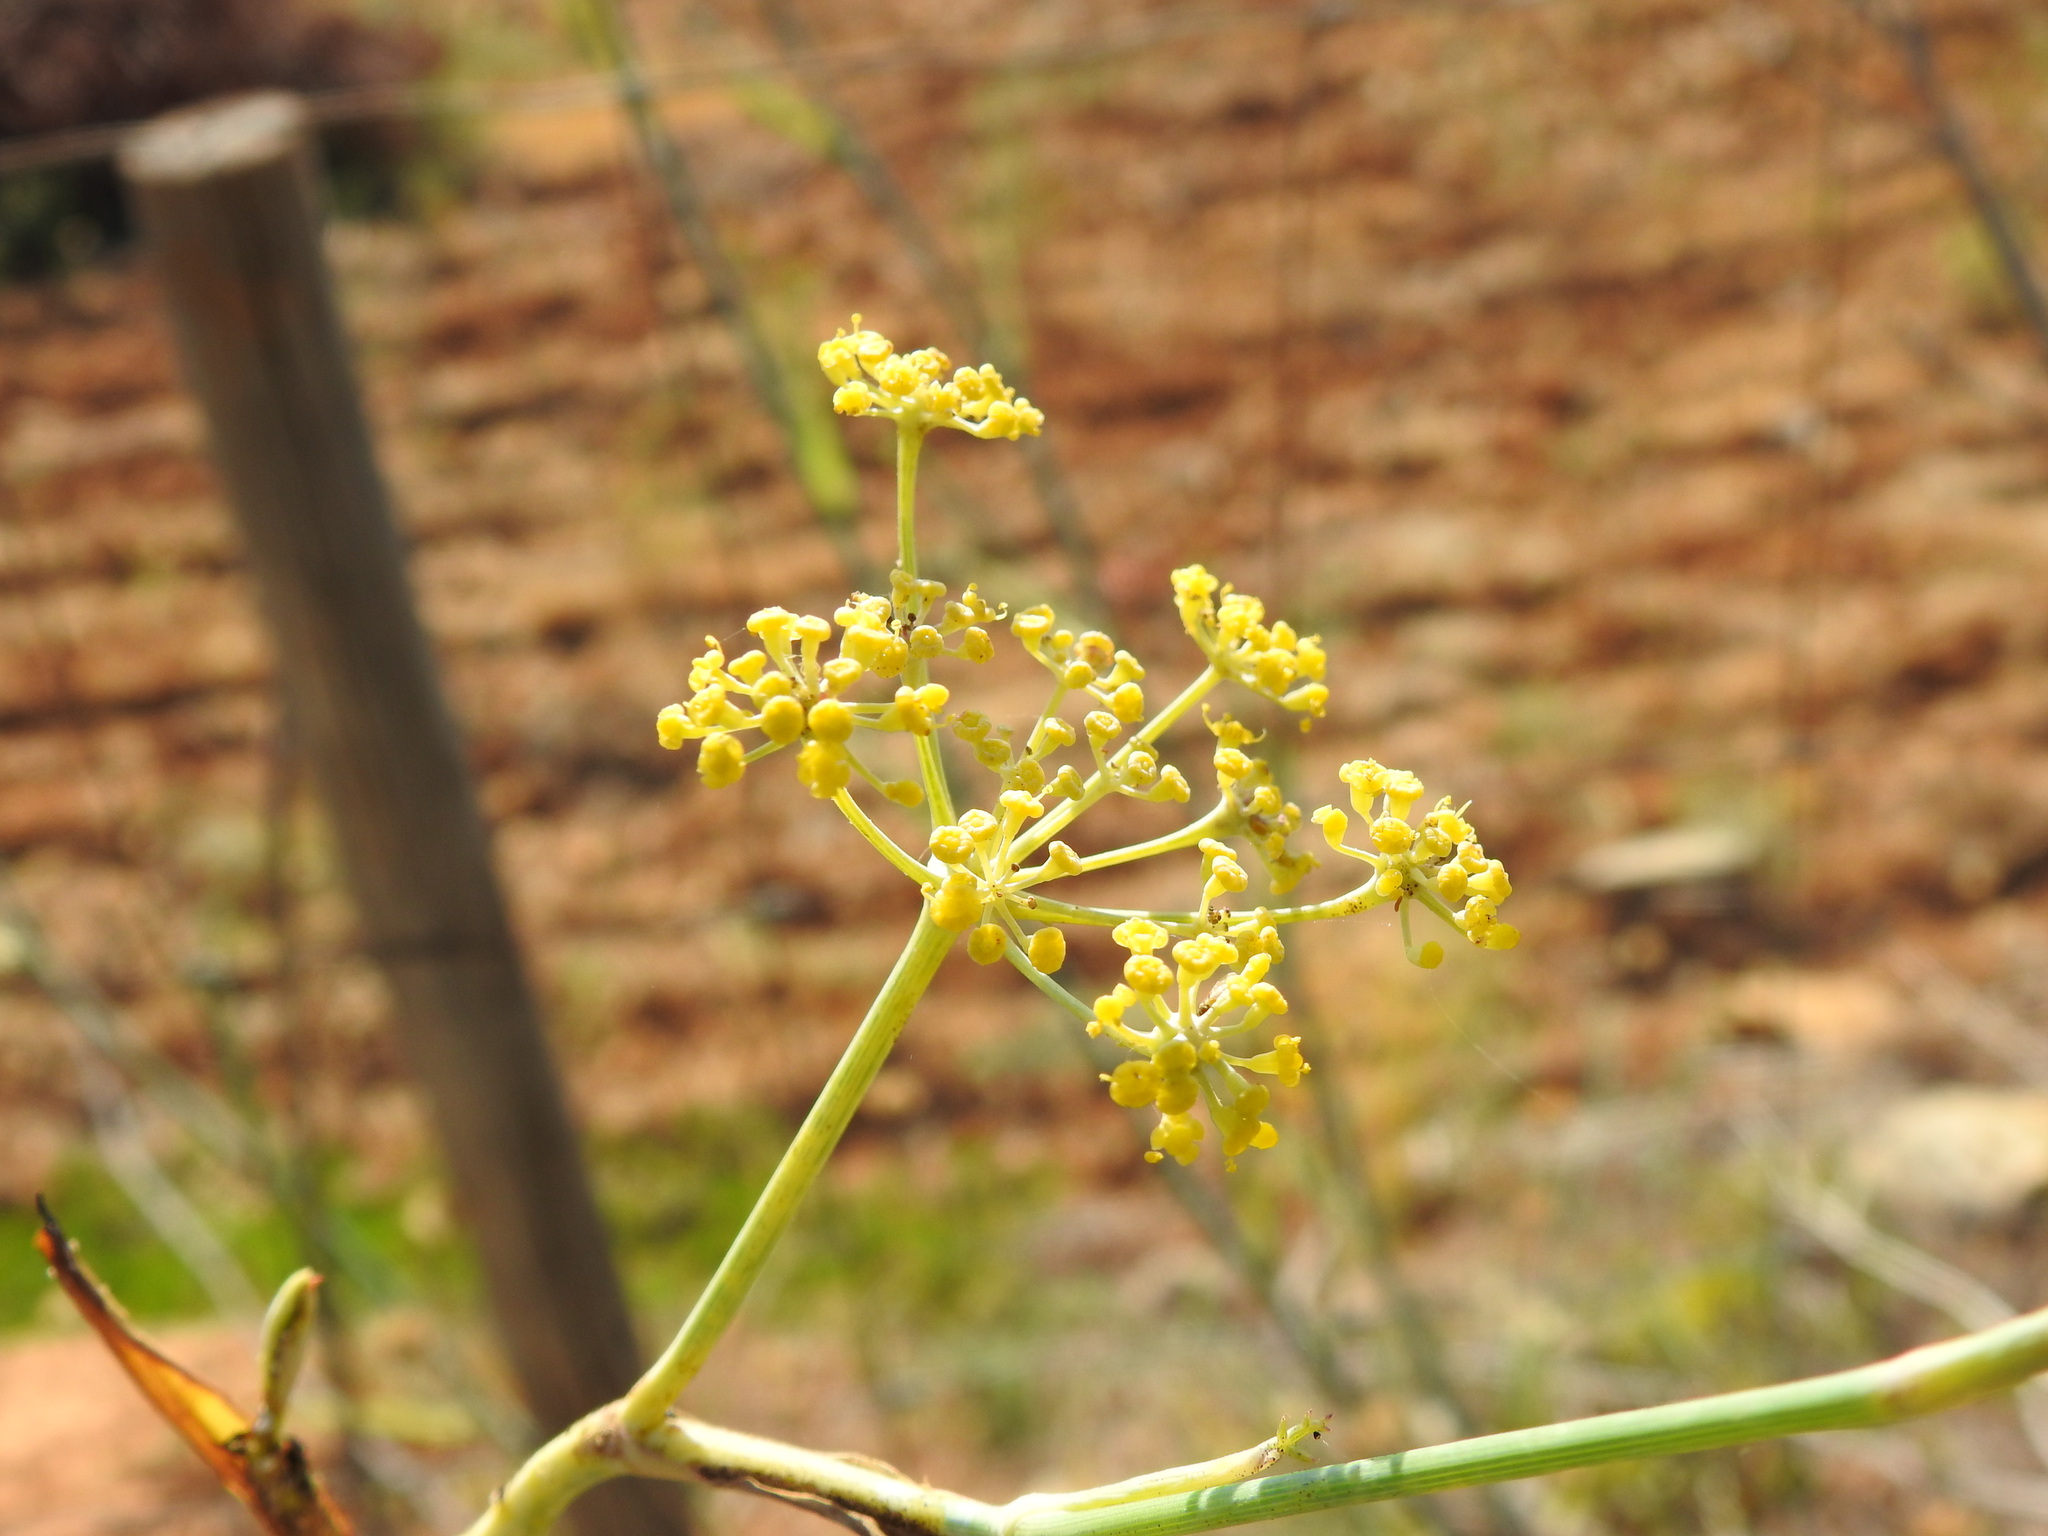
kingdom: Plantae
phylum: Tracheophyta
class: Magnoliopsida
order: Apiales
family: Apiaceae
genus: Foeniculum
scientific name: Foeniculum vulgare
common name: Fennel
